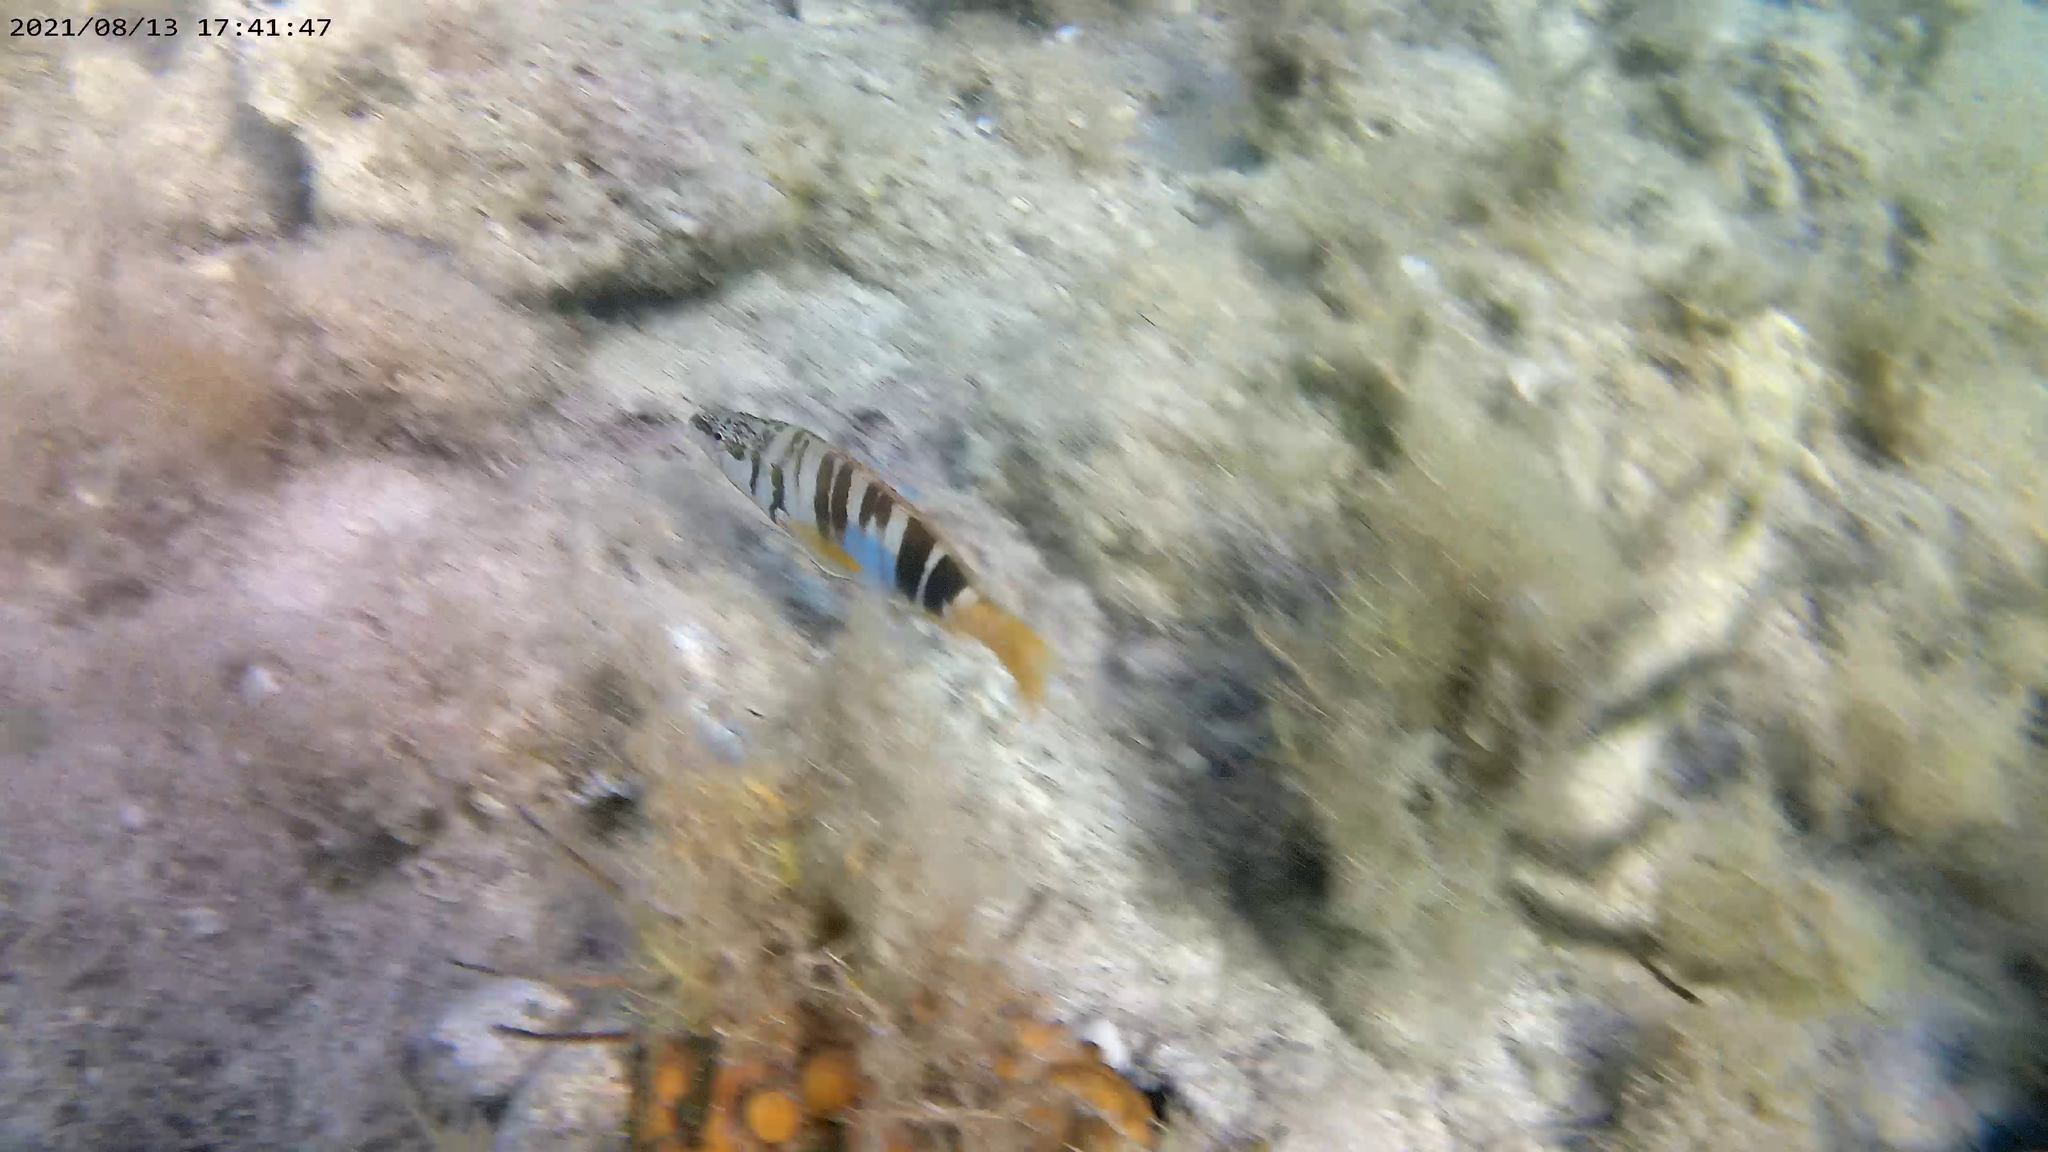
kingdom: Animalia
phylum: Chordata
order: Perciformes
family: Serranidae
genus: Serranus
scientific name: Serranus scriba
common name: Painted comber
